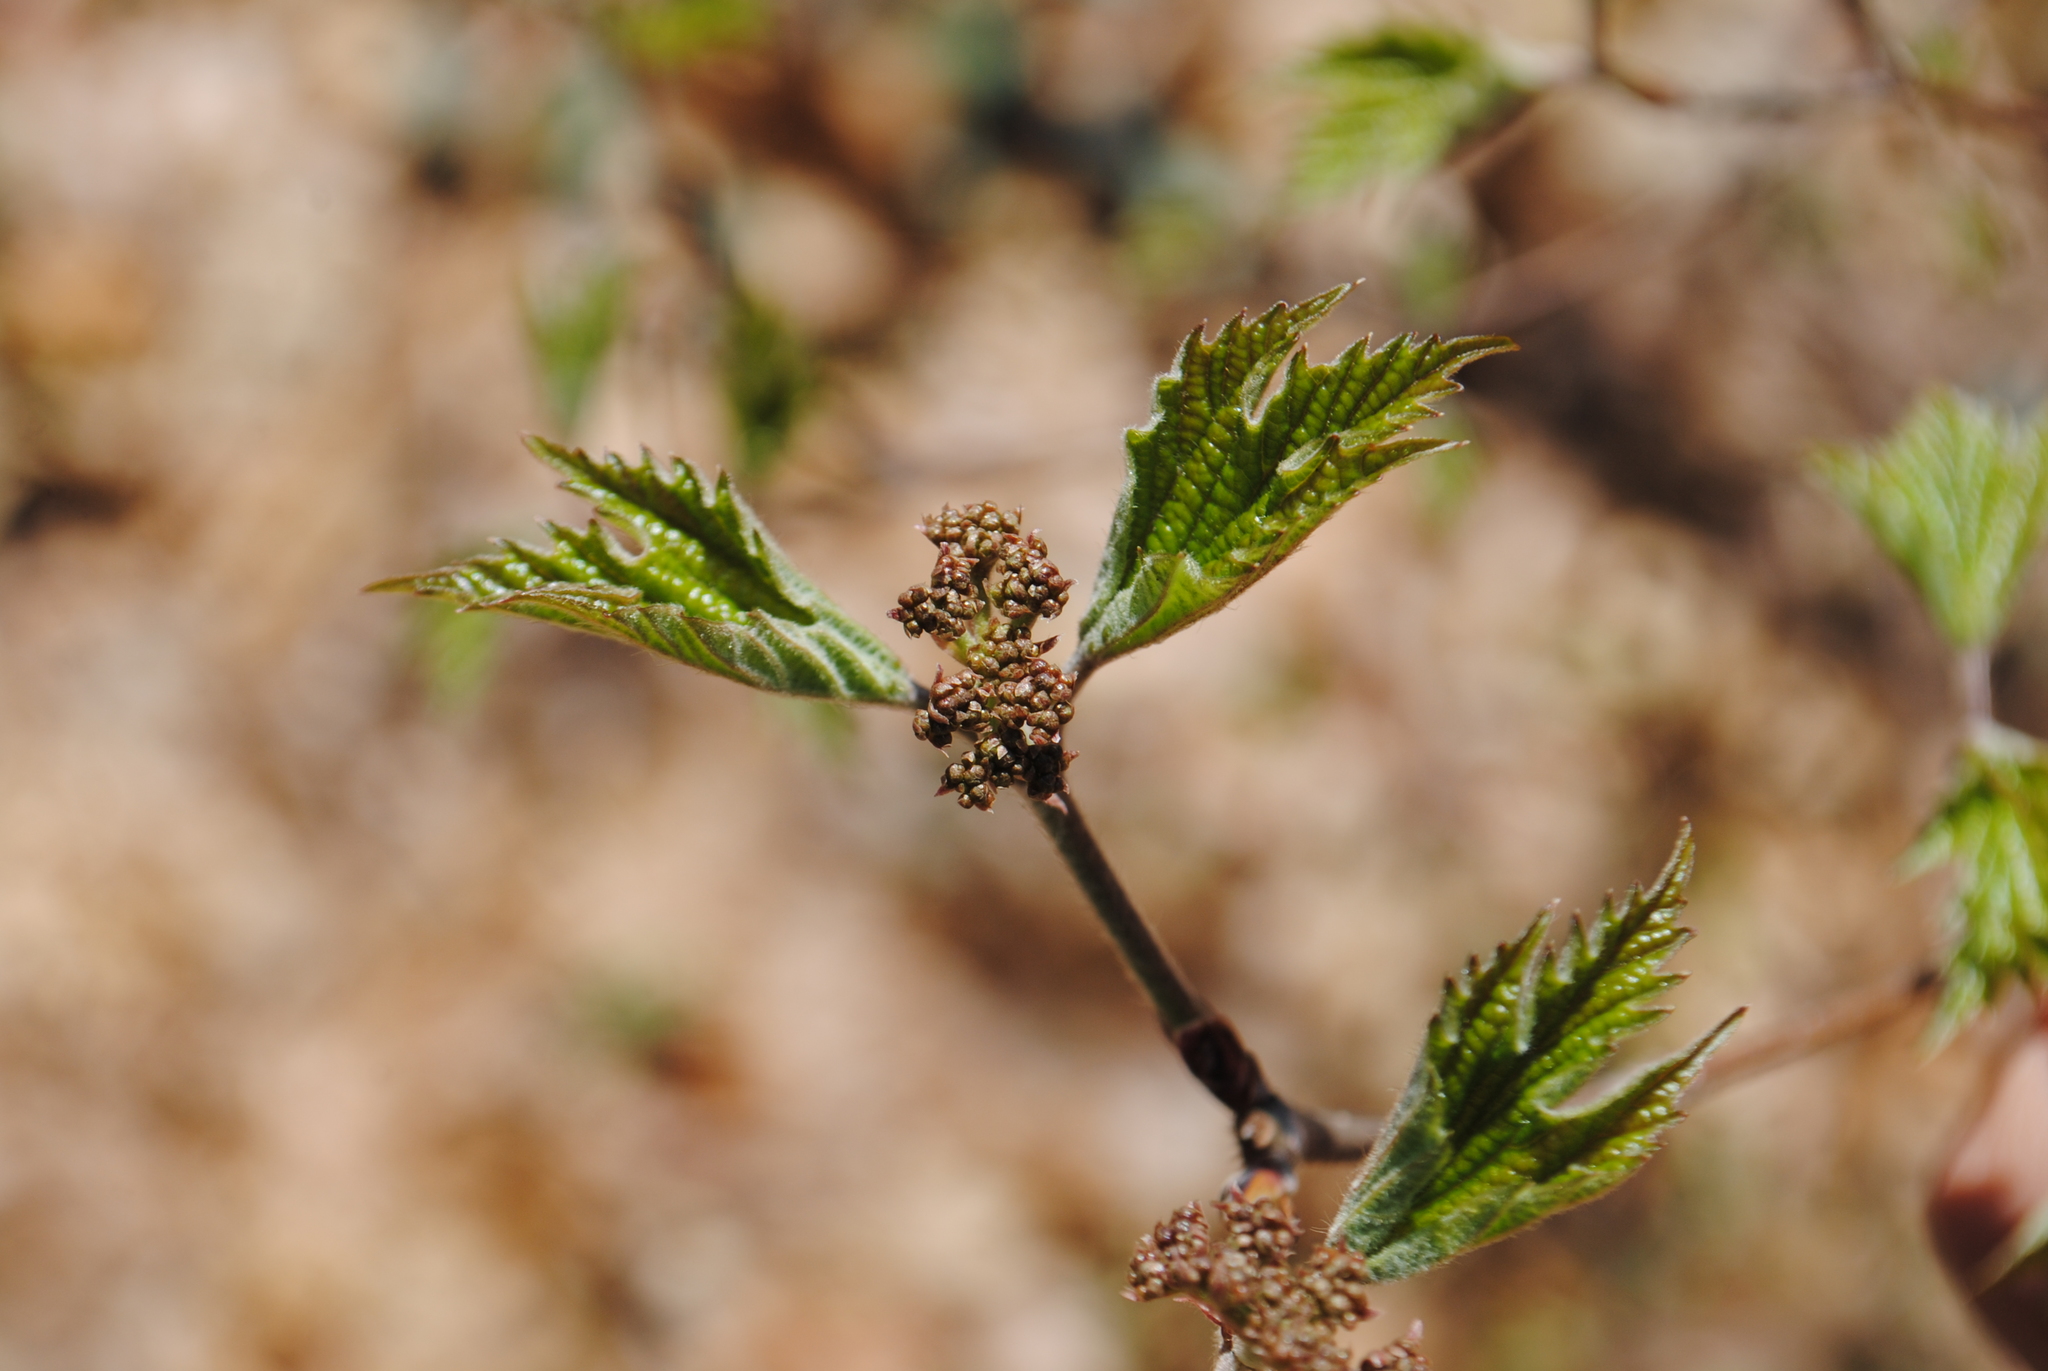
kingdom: Plantae
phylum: Tracheophyta
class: Magnoliopsida
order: Dipsacales
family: Viburnaceae
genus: Viburnum
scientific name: Viburnum acerifolium
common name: Dockmackie
